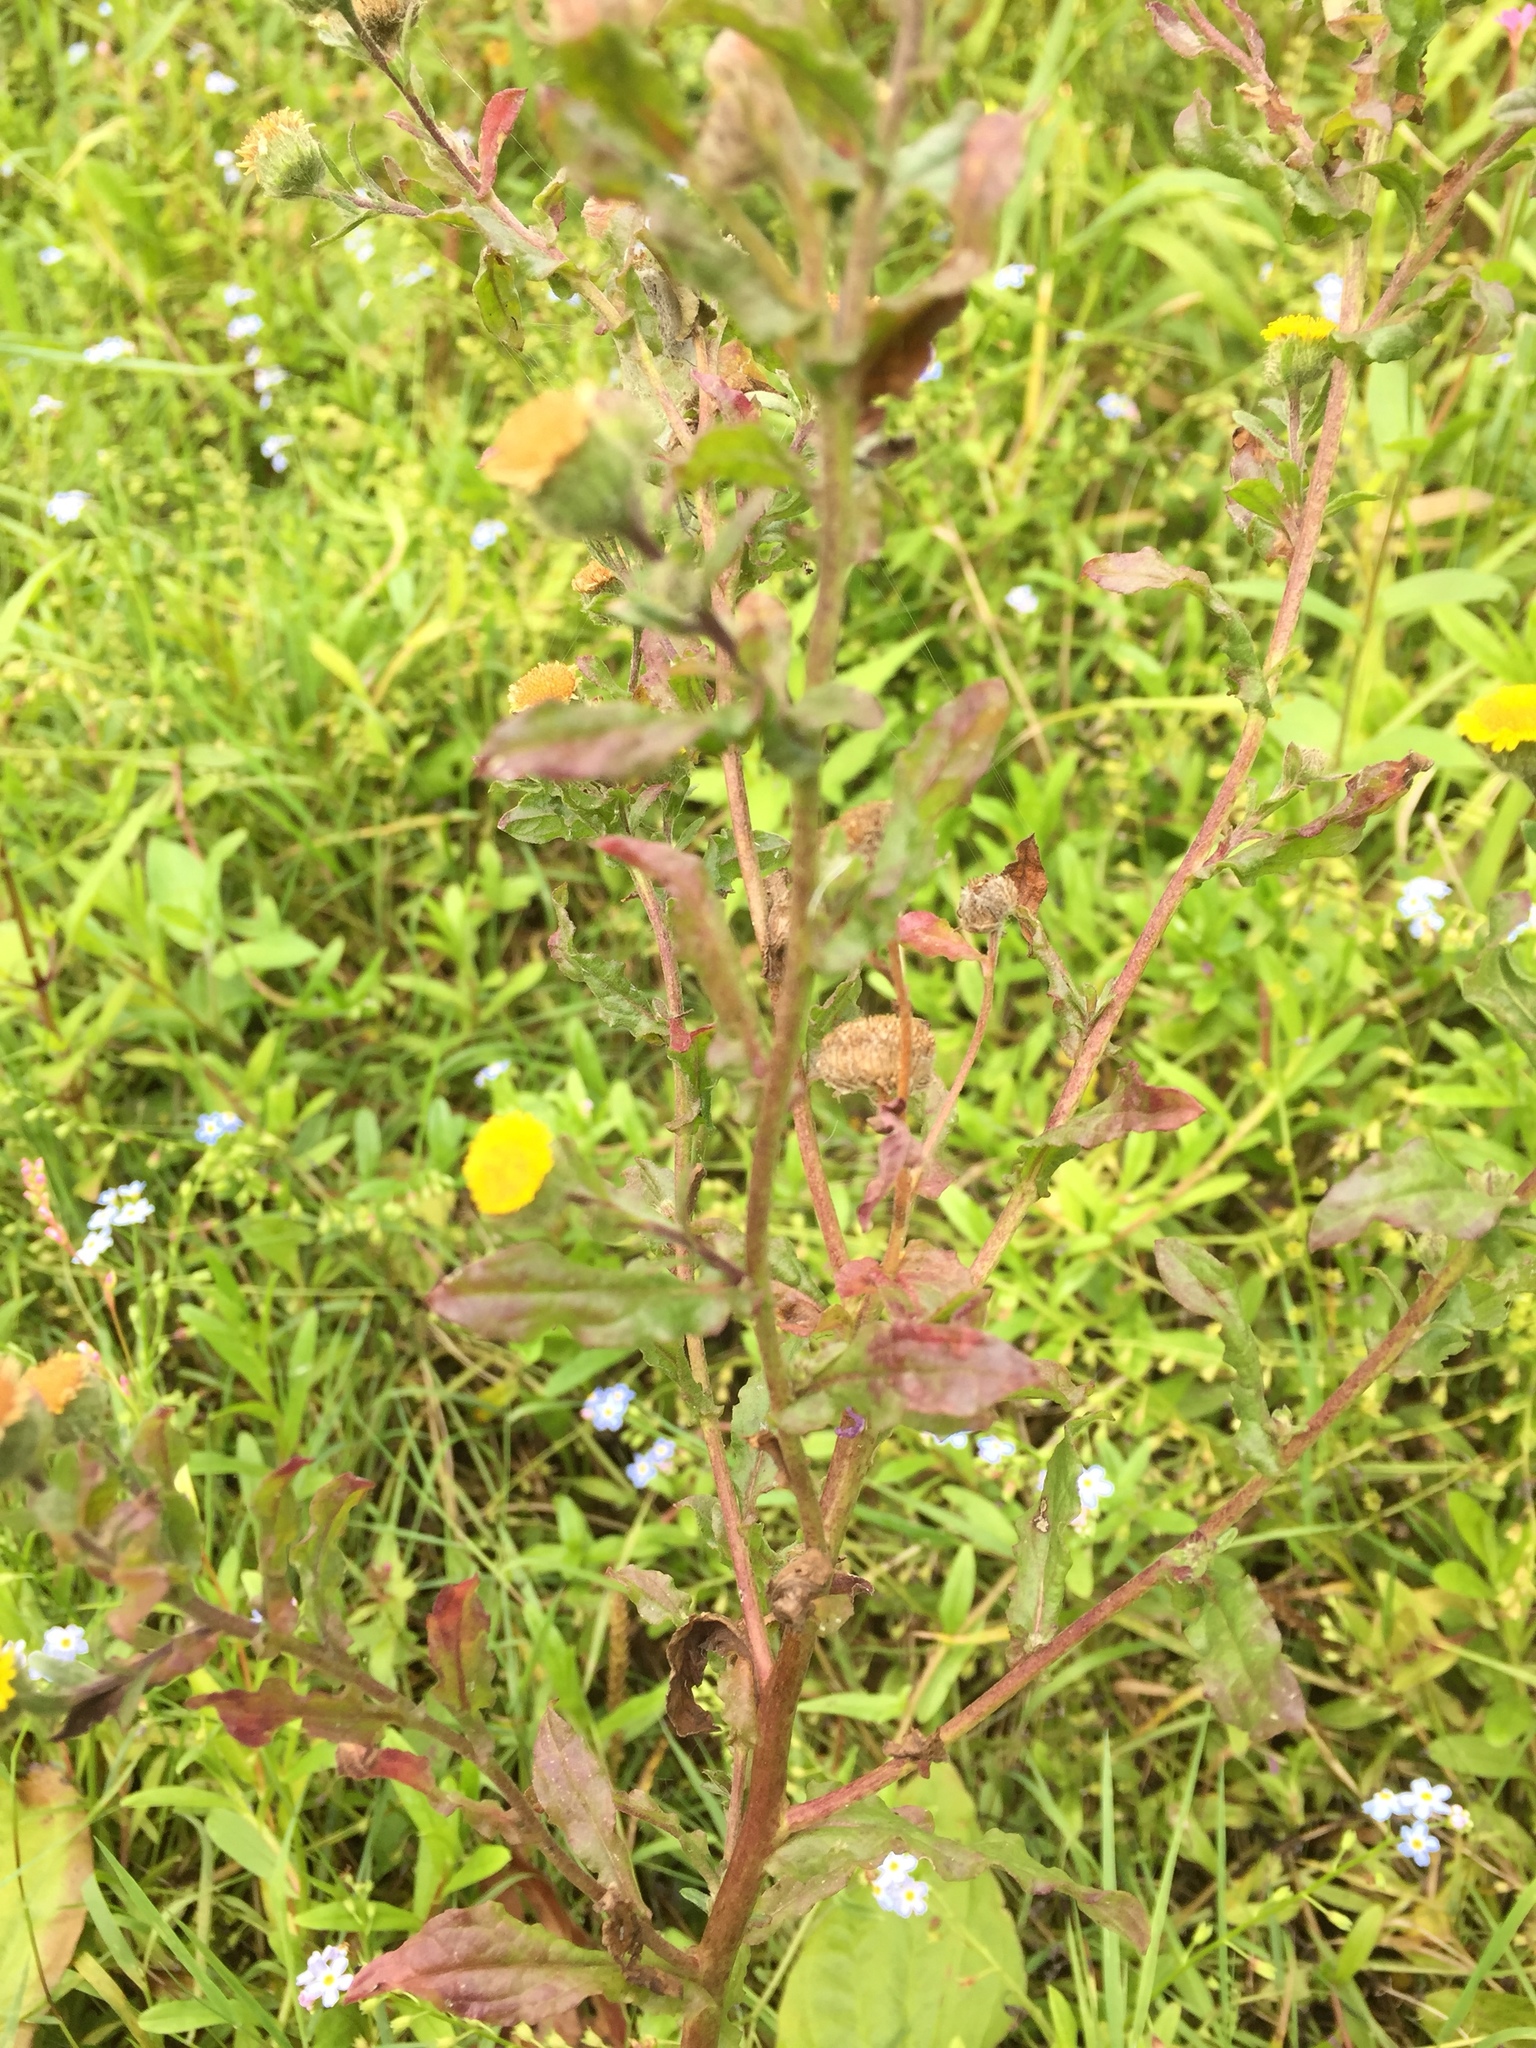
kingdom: Plantae
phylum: Tracheophyta
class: Magnoliopsida
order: Asterales
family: Asteraceae
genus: Pulicaria
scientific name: Pulicaria vulgaris
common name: Small fleabane
